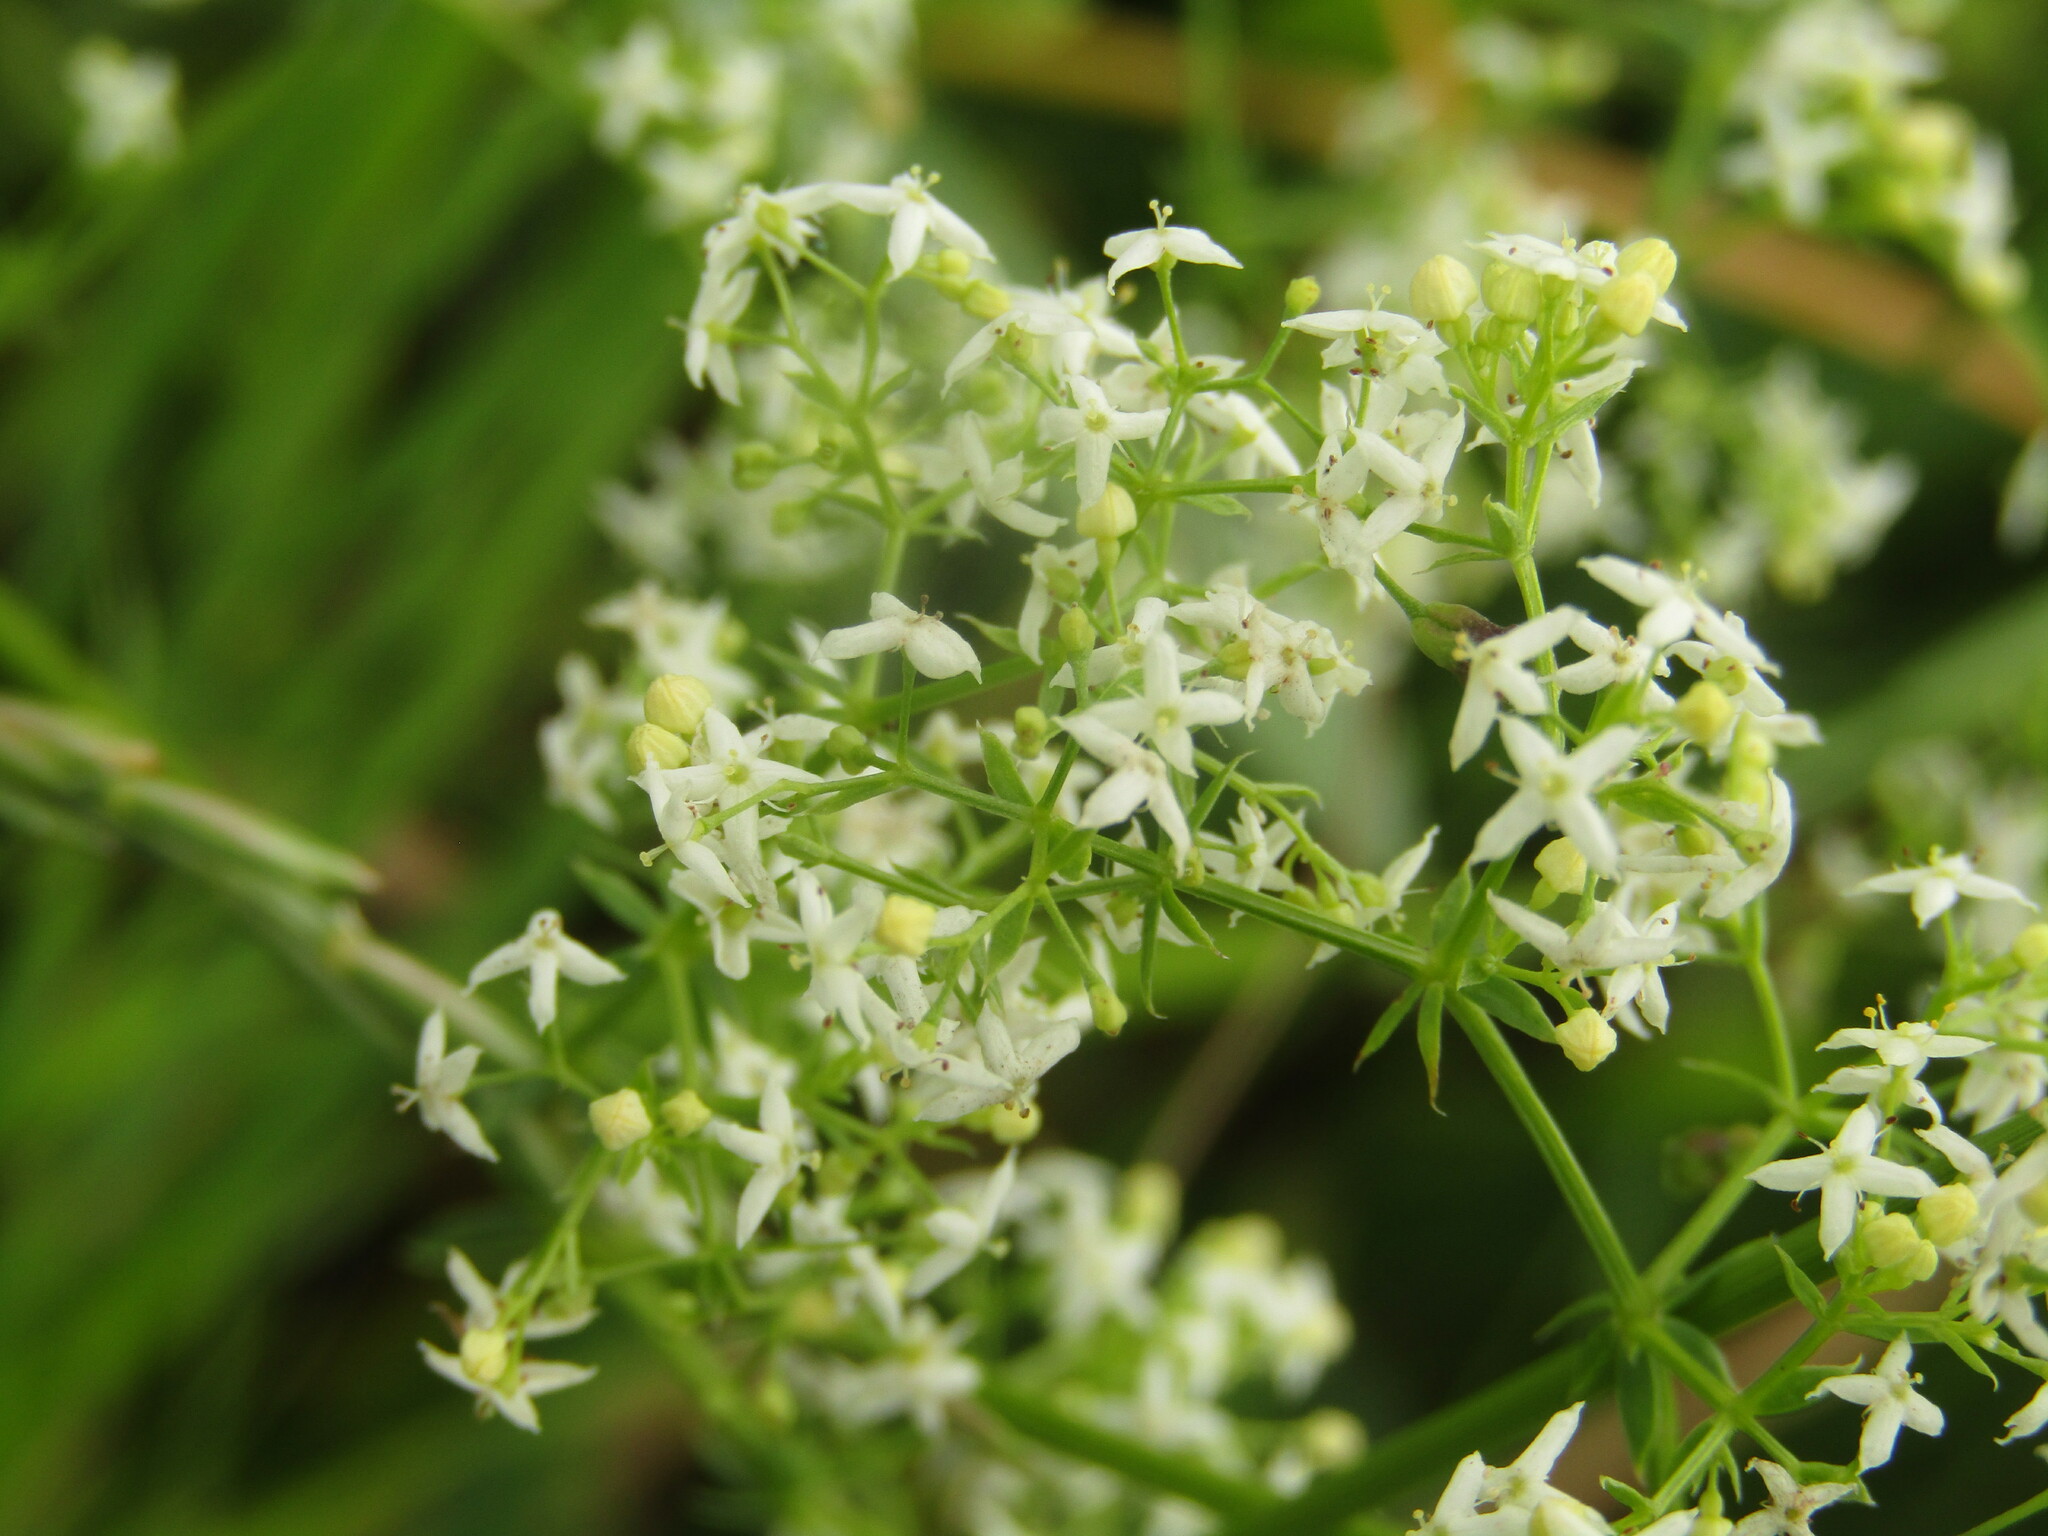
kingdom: Plantae
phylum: Tracheophyta
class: Magnoliopsida
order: Gentianales
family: Rubiaceae
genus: Galium
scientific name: Galium mollugo
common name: Hedge bedstraw
